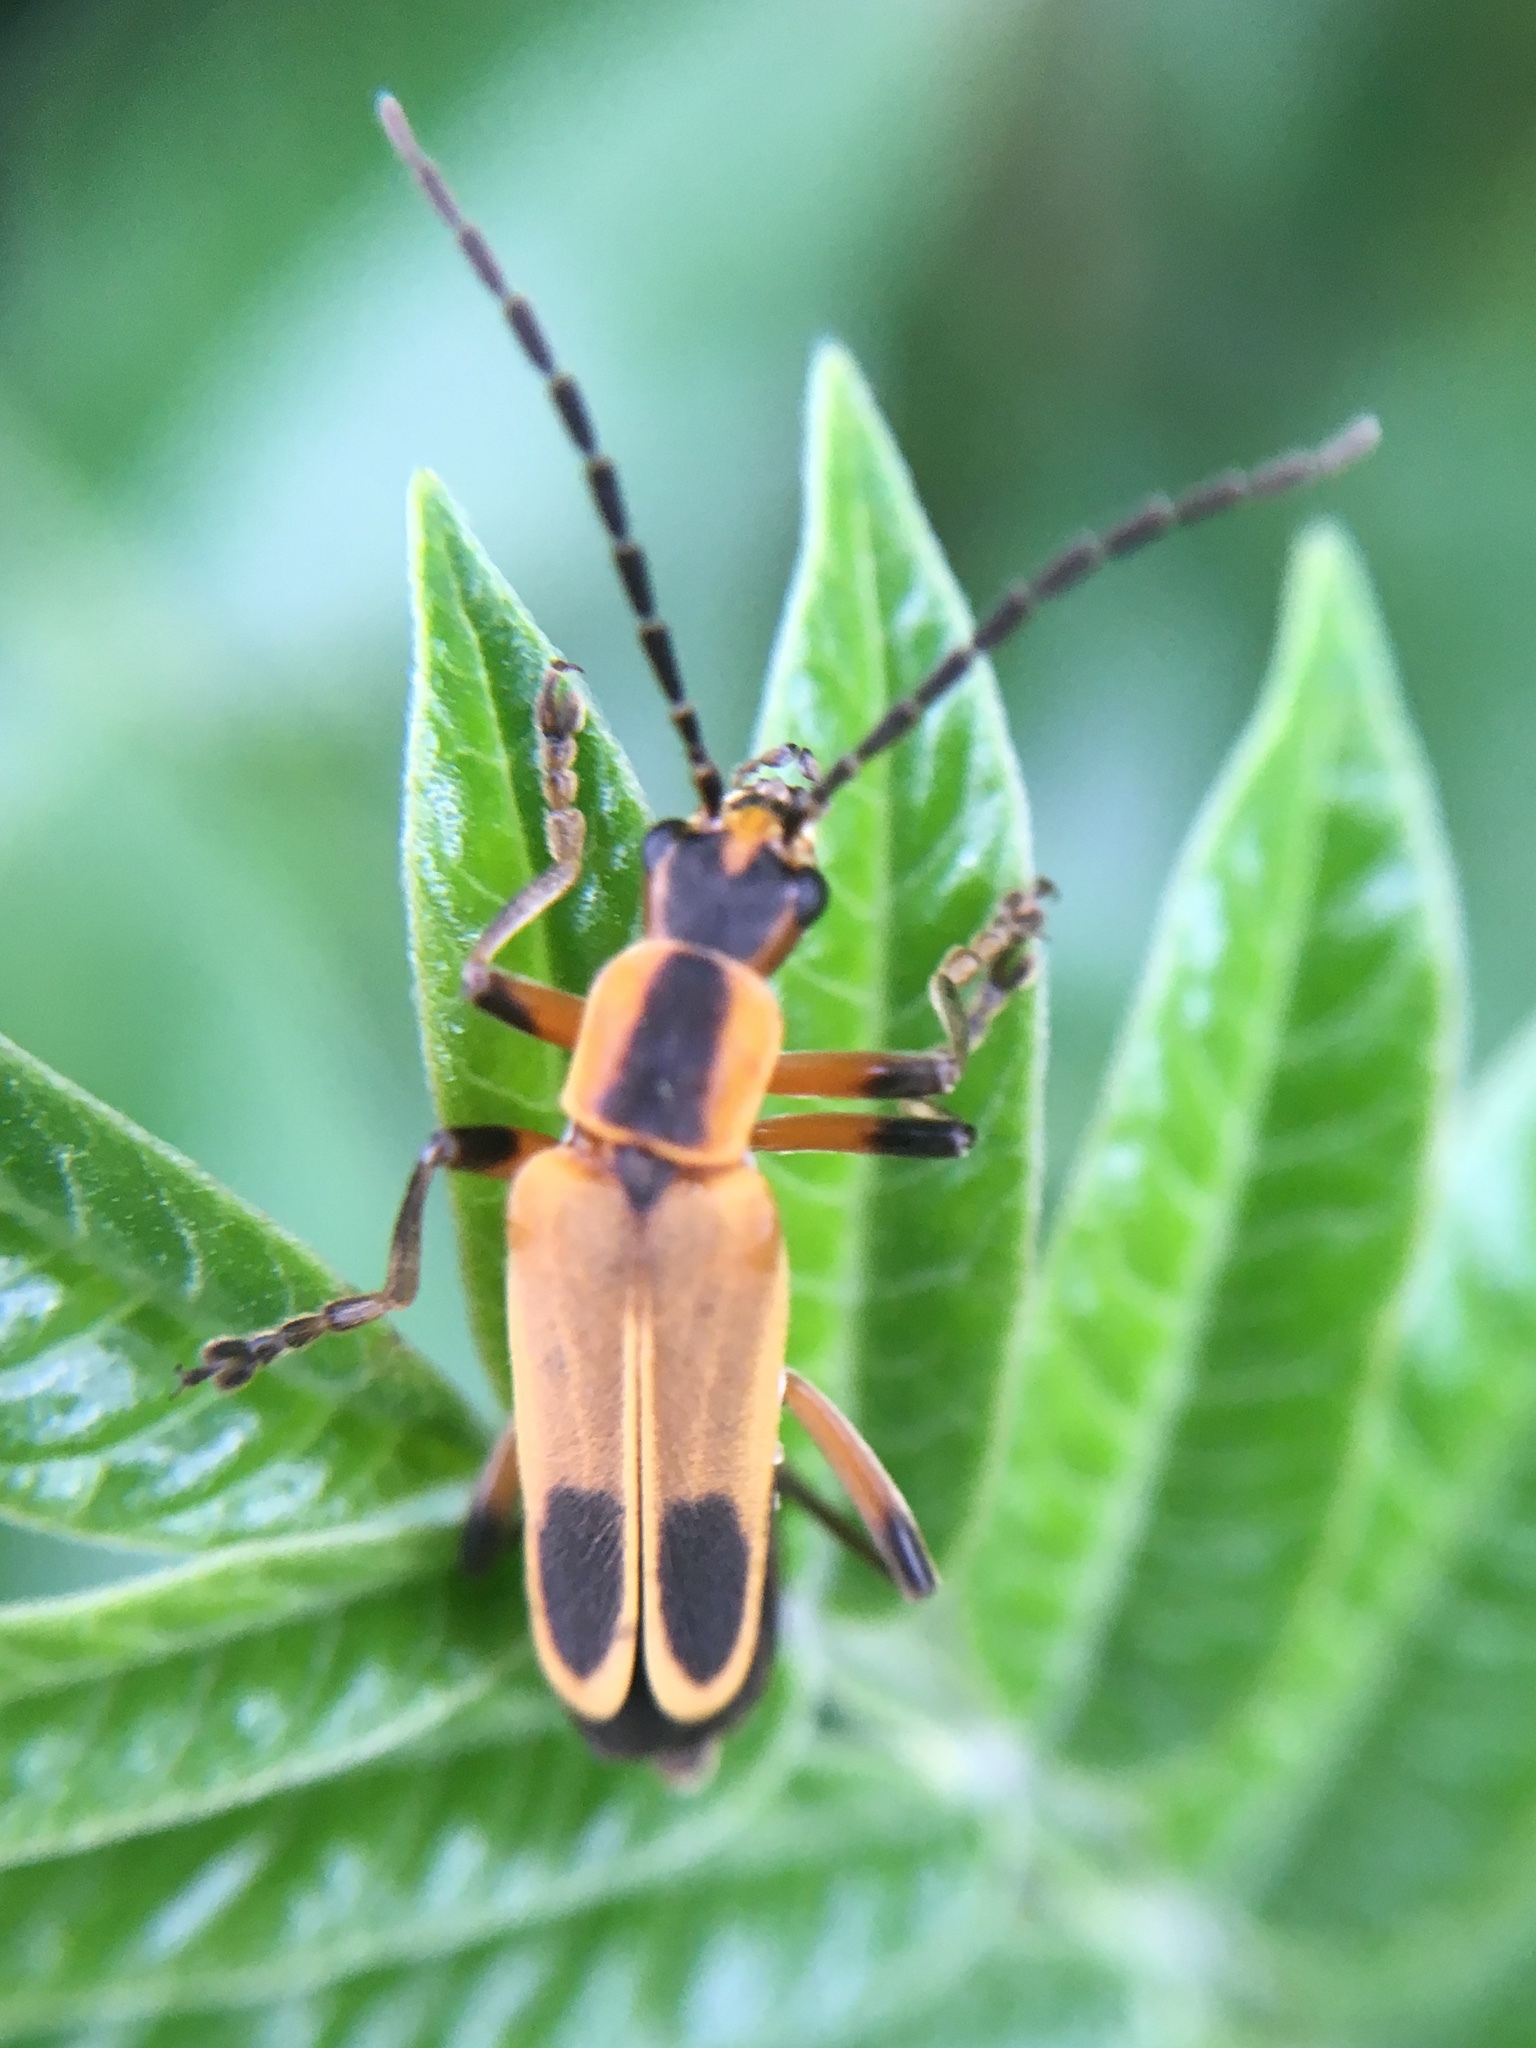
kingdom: Animalia
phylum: Arthropoda
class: Insecta
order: Coleoptera
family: Cantharidae
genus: Chauliognathus
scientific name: Chauliognathus marginatus
